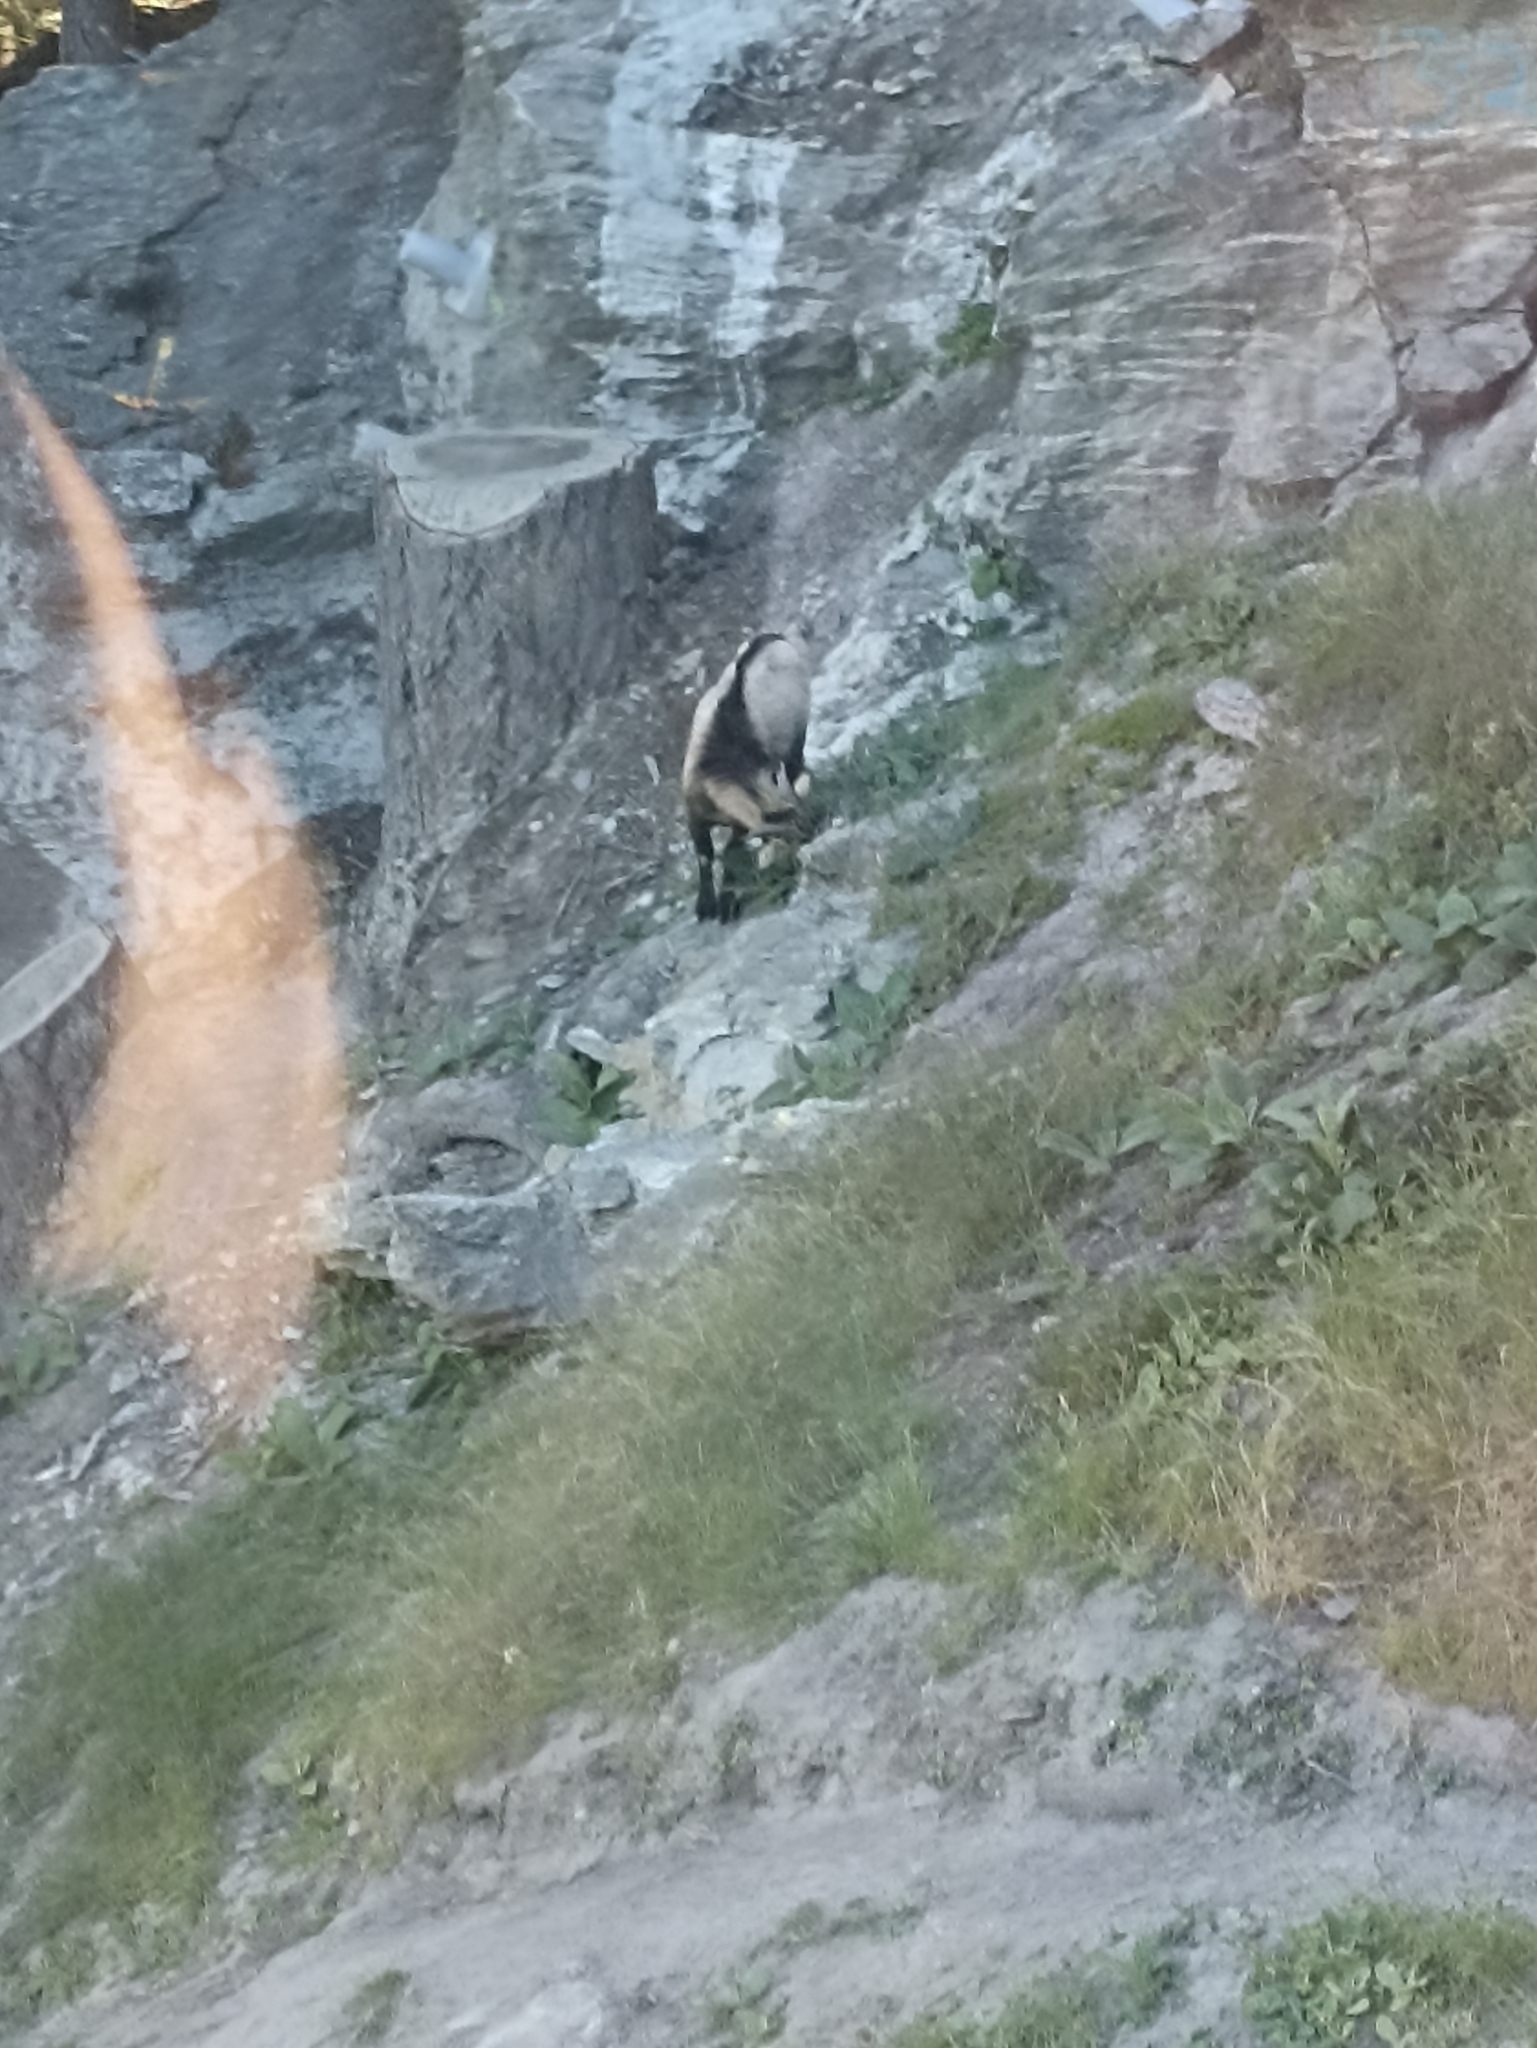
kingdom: Animalia
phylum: Chordata
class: Mammalia
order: Artiodactyla
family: Bovidae
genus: Capra
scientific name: Capra hircus
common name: Domestic goat
